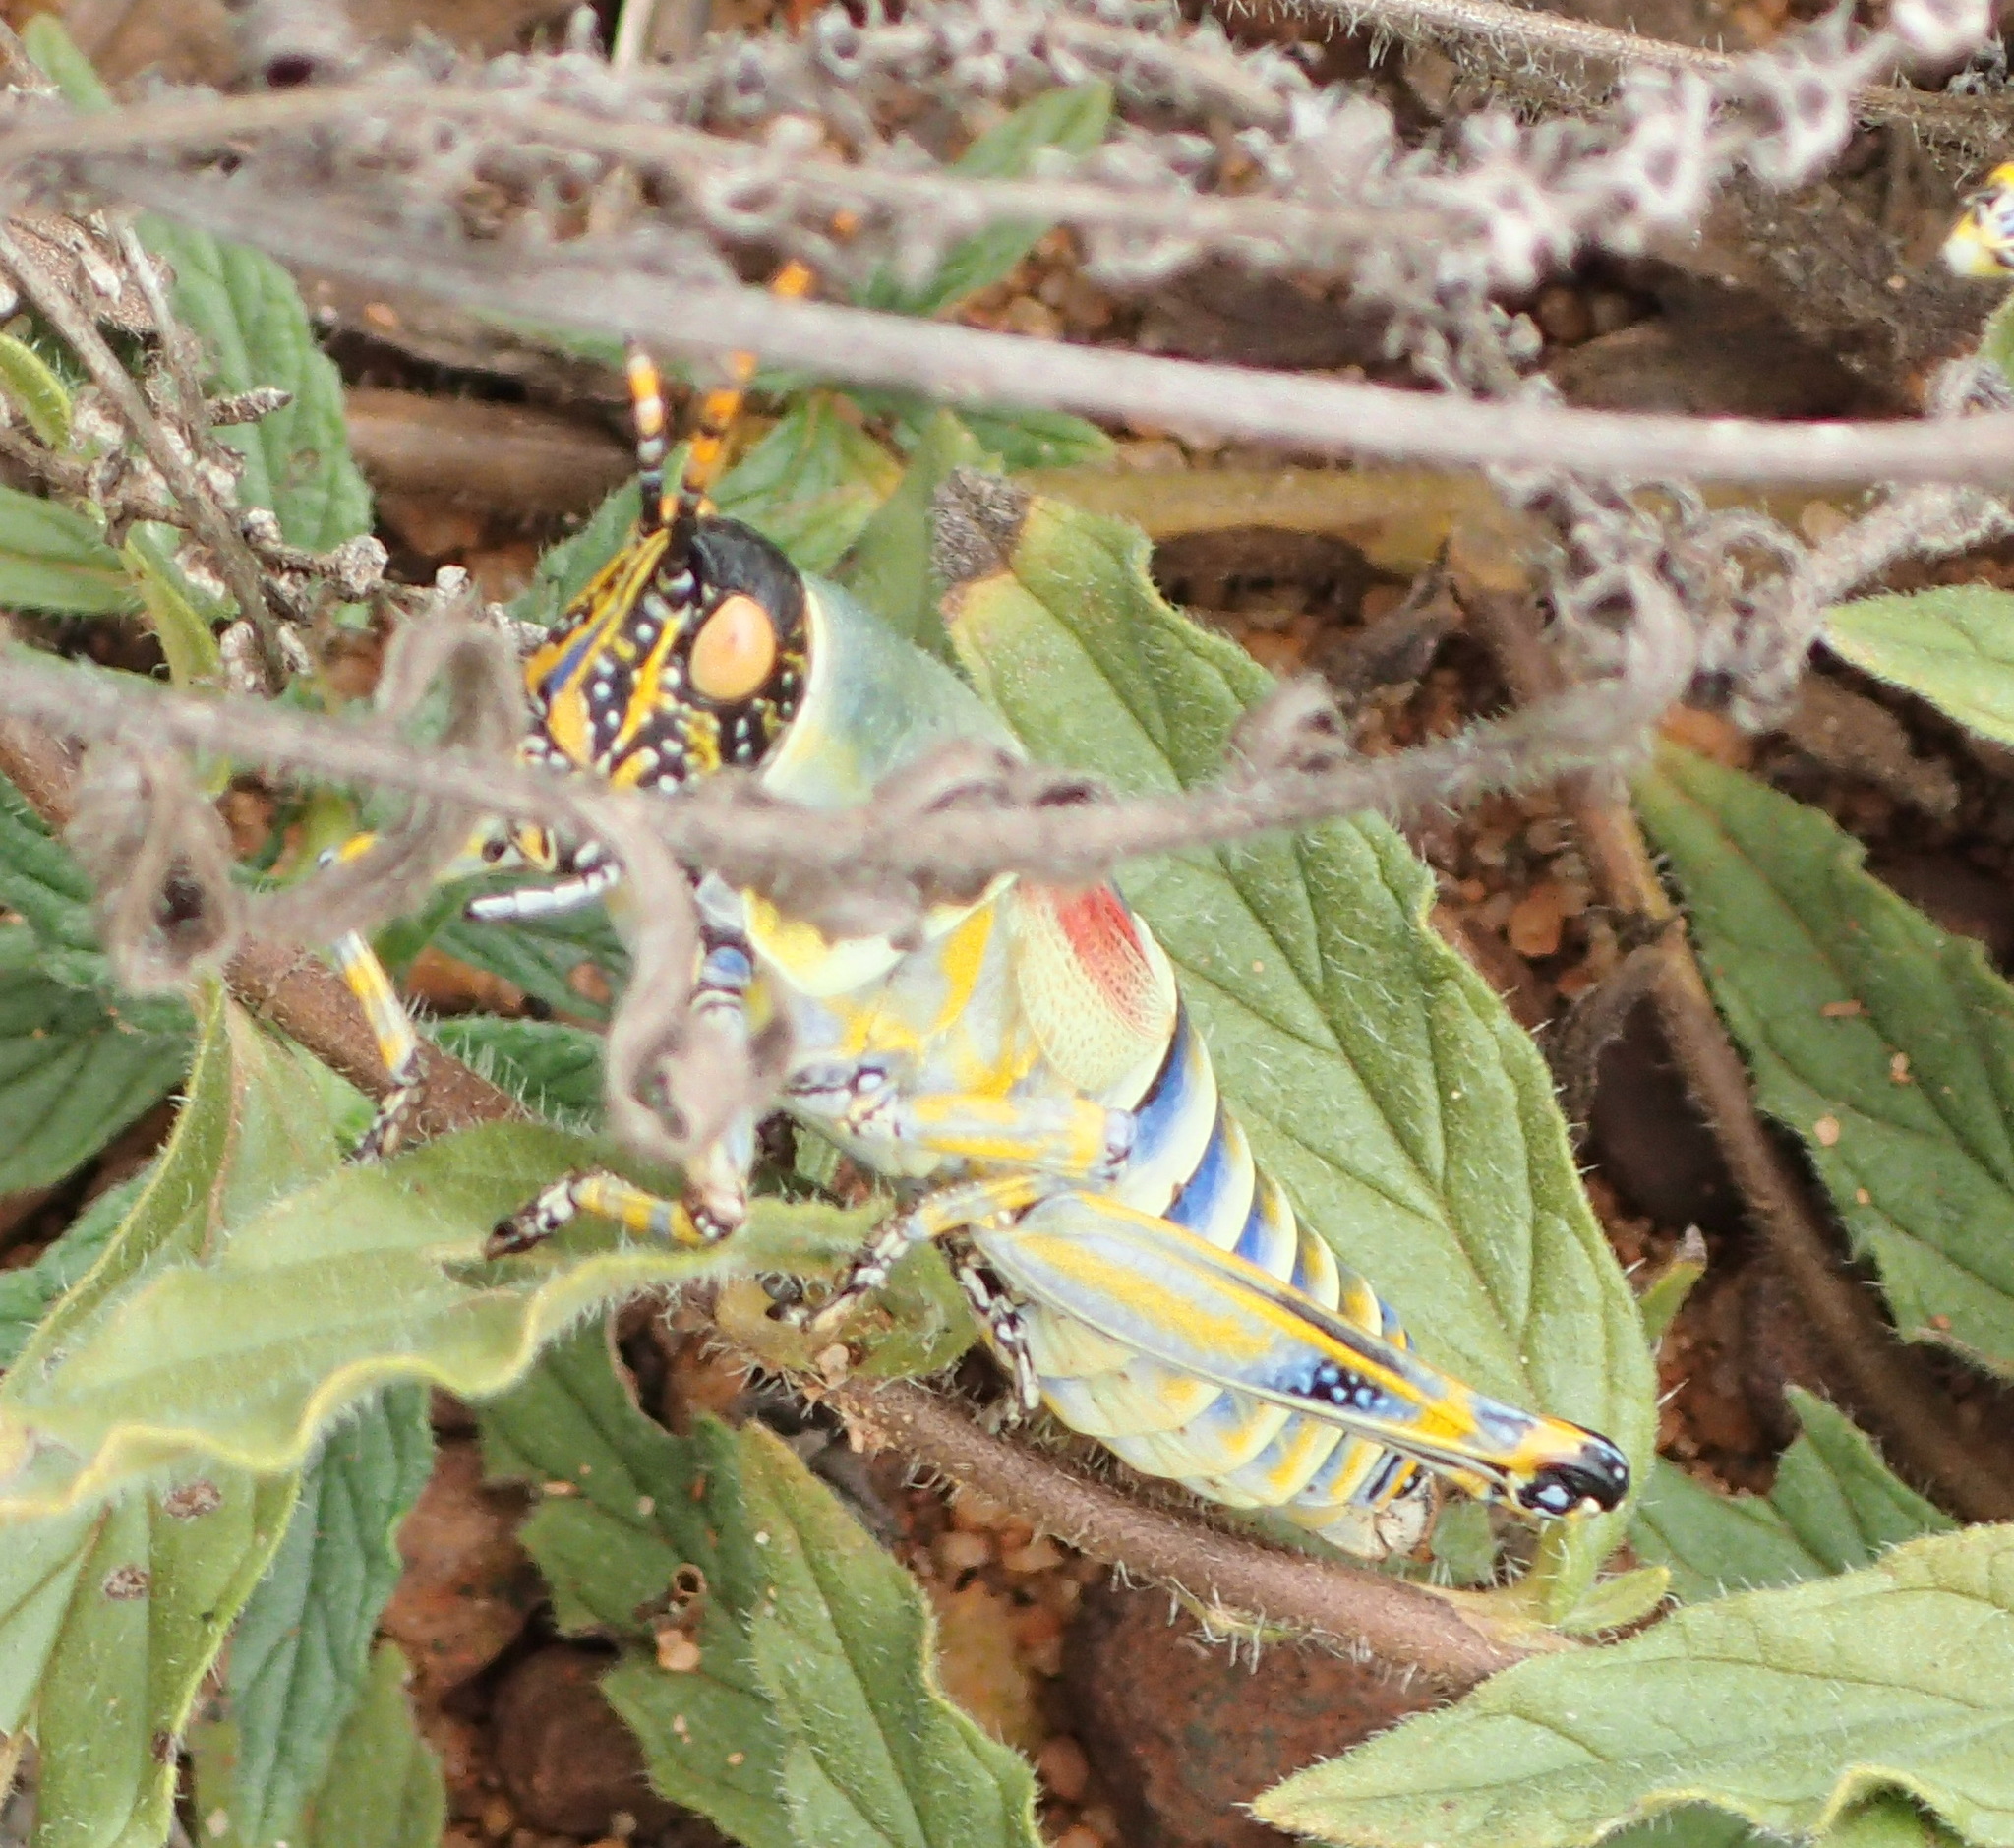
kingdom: Animalia
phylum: Arthropoda
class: Insecta
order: Orthoptera
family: Pyrgomorphidae
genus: Zonocerus
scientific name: Zonocerus elegans
